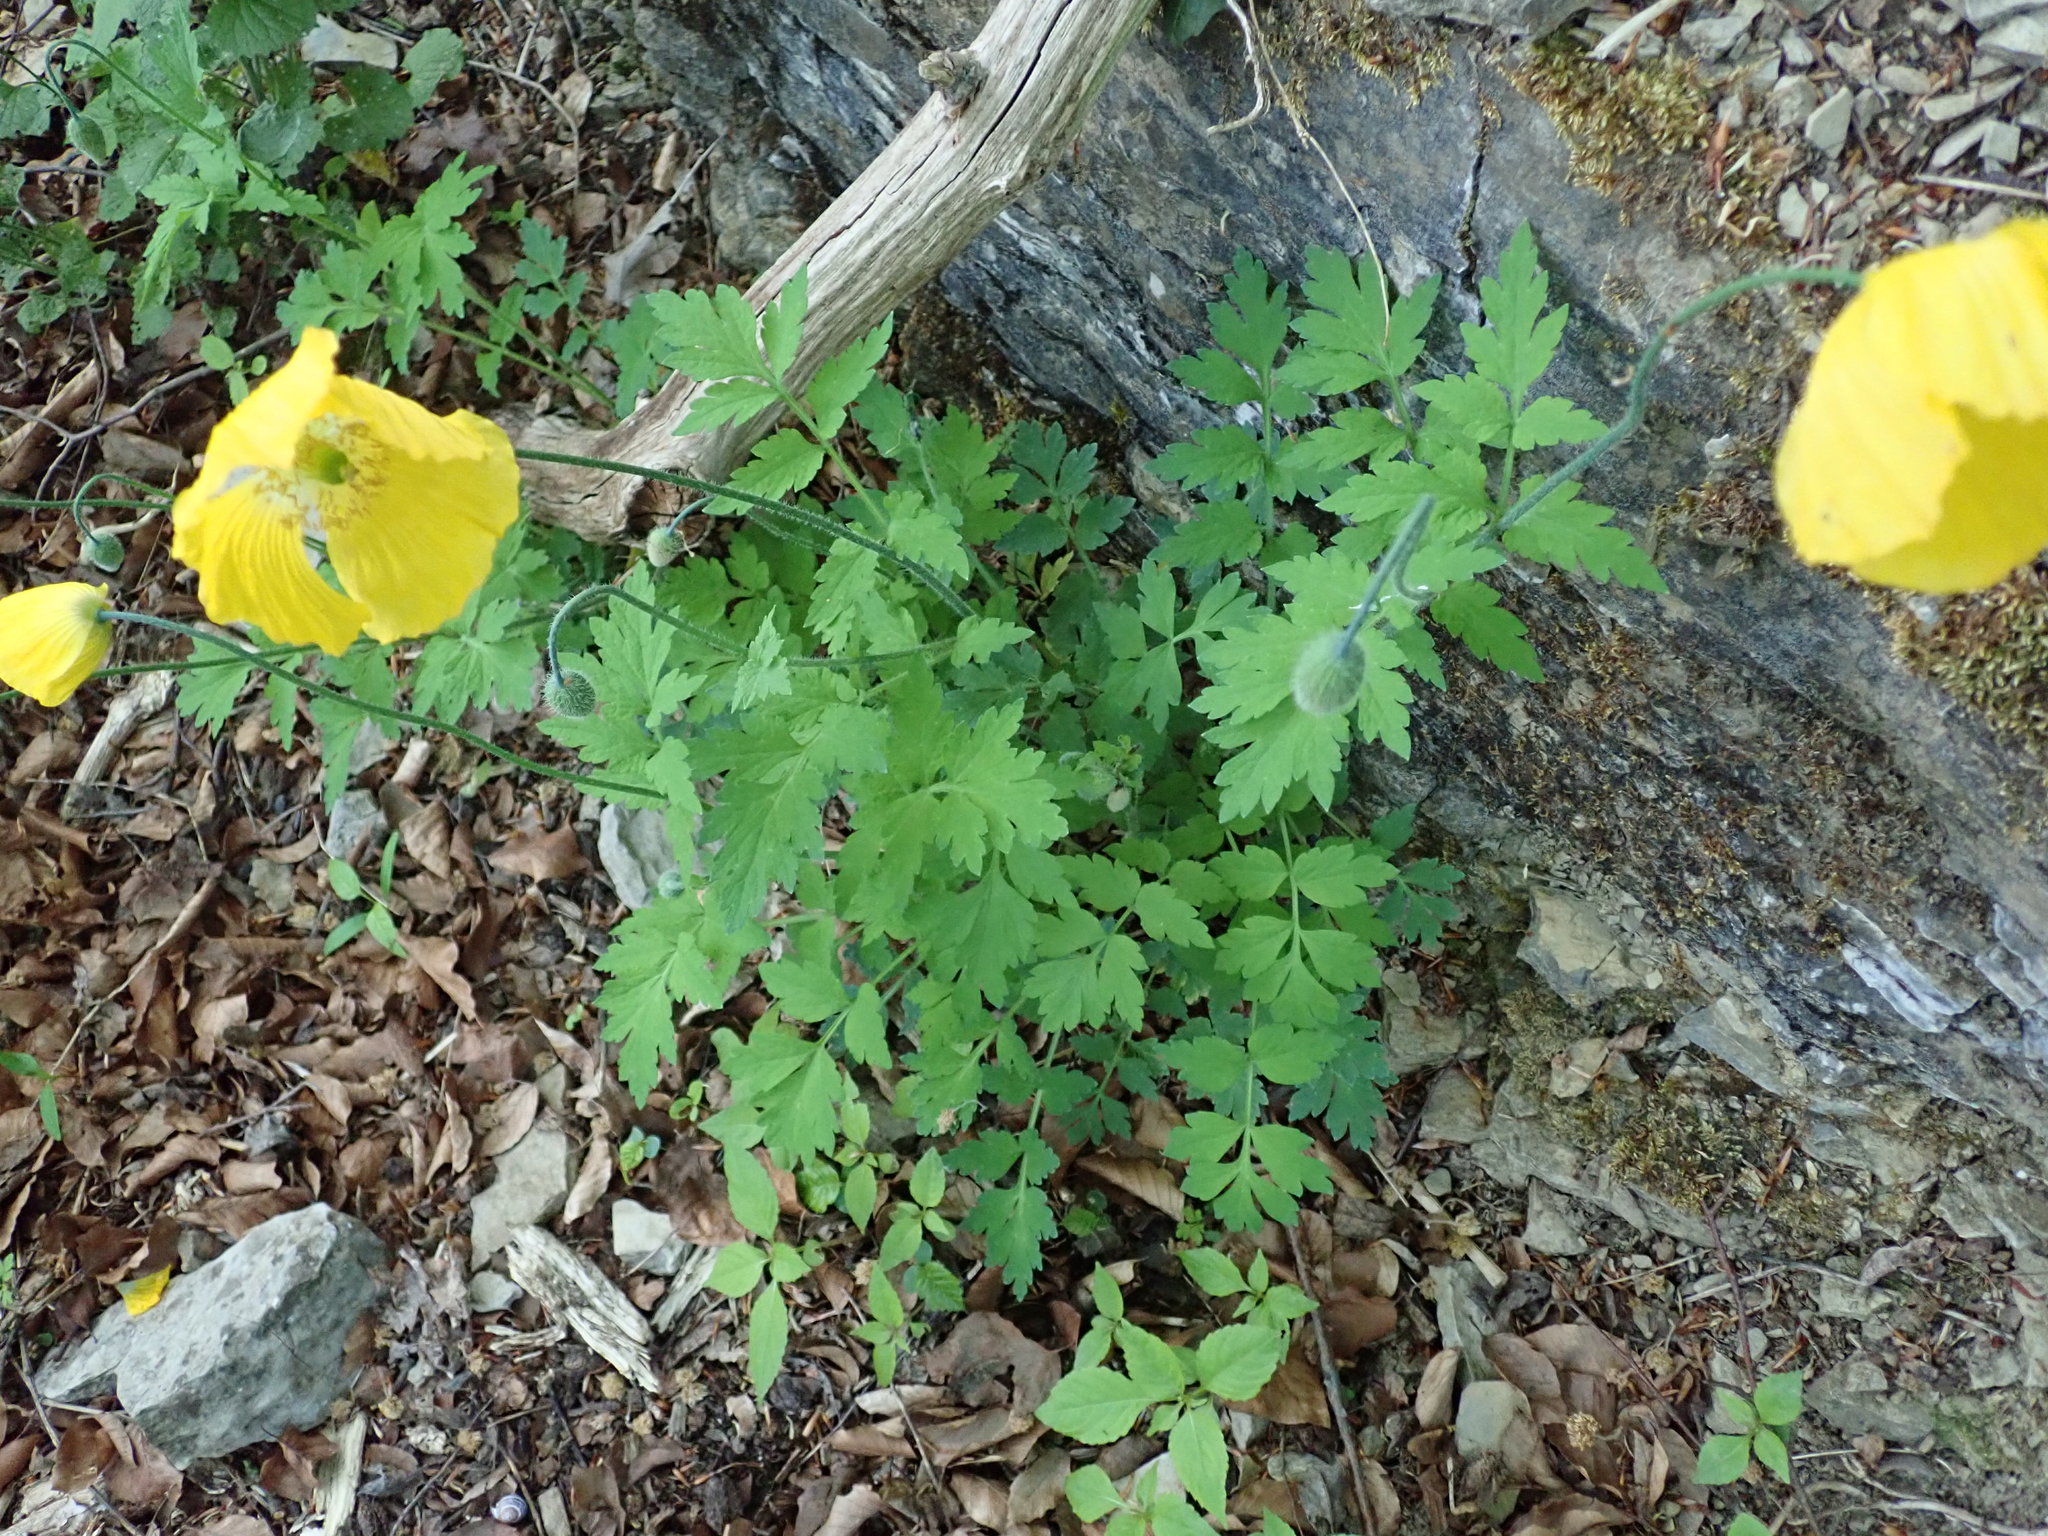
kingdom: Plantae
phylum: Tracheophyta
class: Magnoliopsida
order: Ranunculales
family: Papaveraceae
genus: Papaver
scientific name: Papaver cambricum
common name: Poppy
